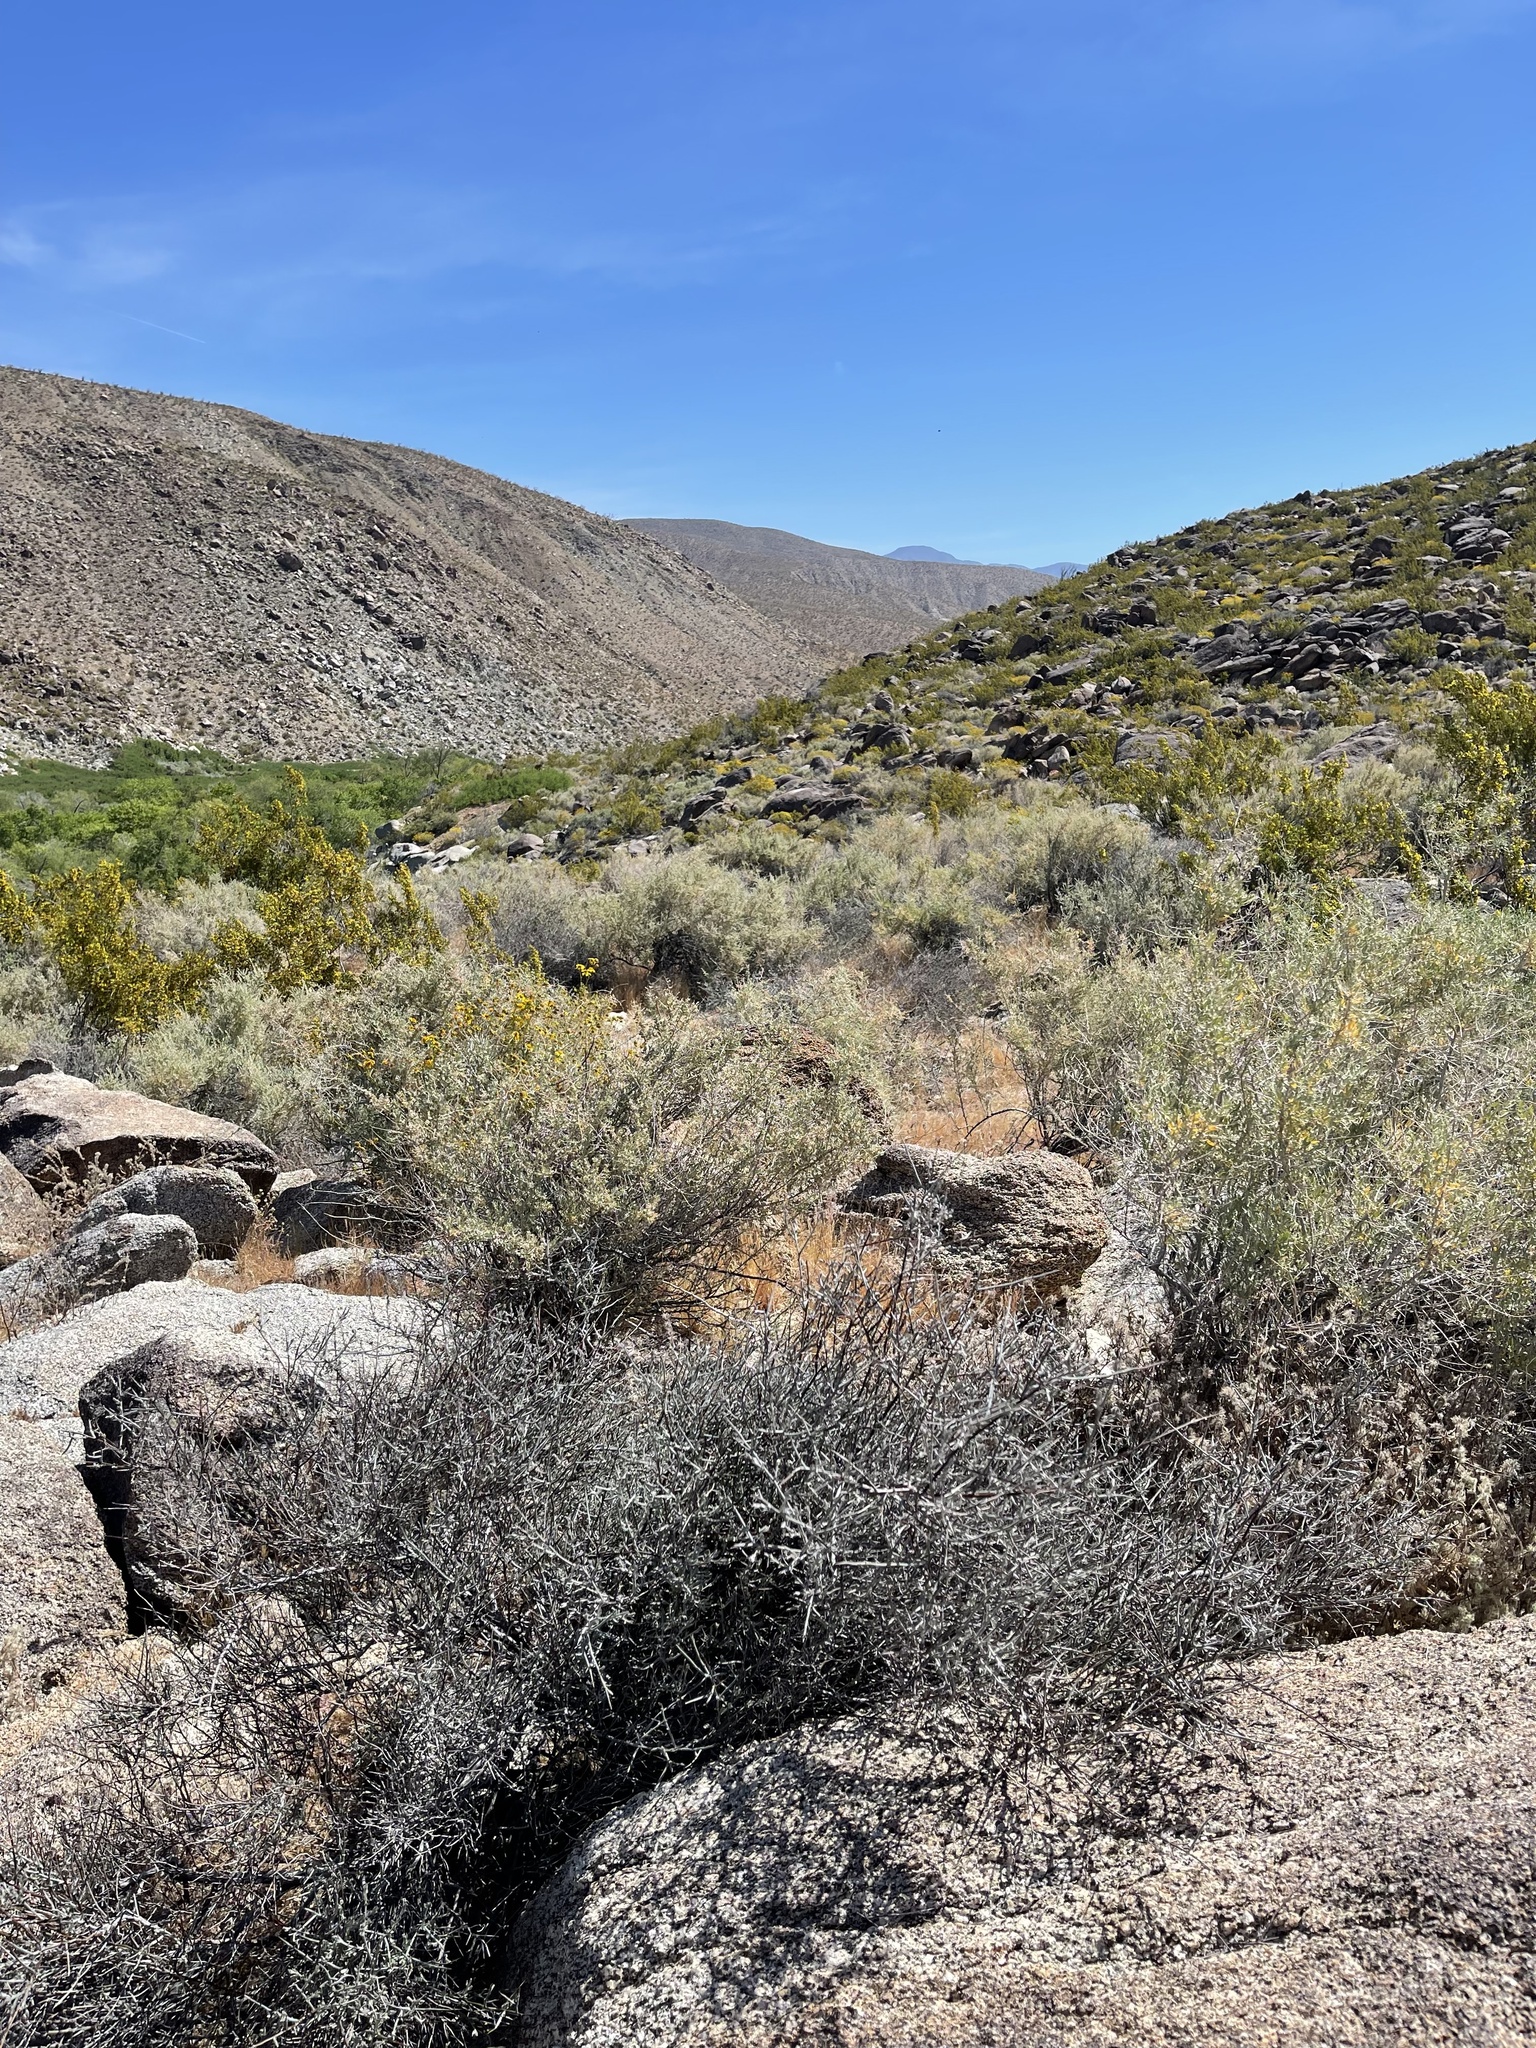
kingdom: Plantae
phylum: Tracheophyta
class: Magnoliopsida
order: Caryophyllales
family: Cactaceae
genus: Cochemiea
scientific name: Cochemiea dioica
